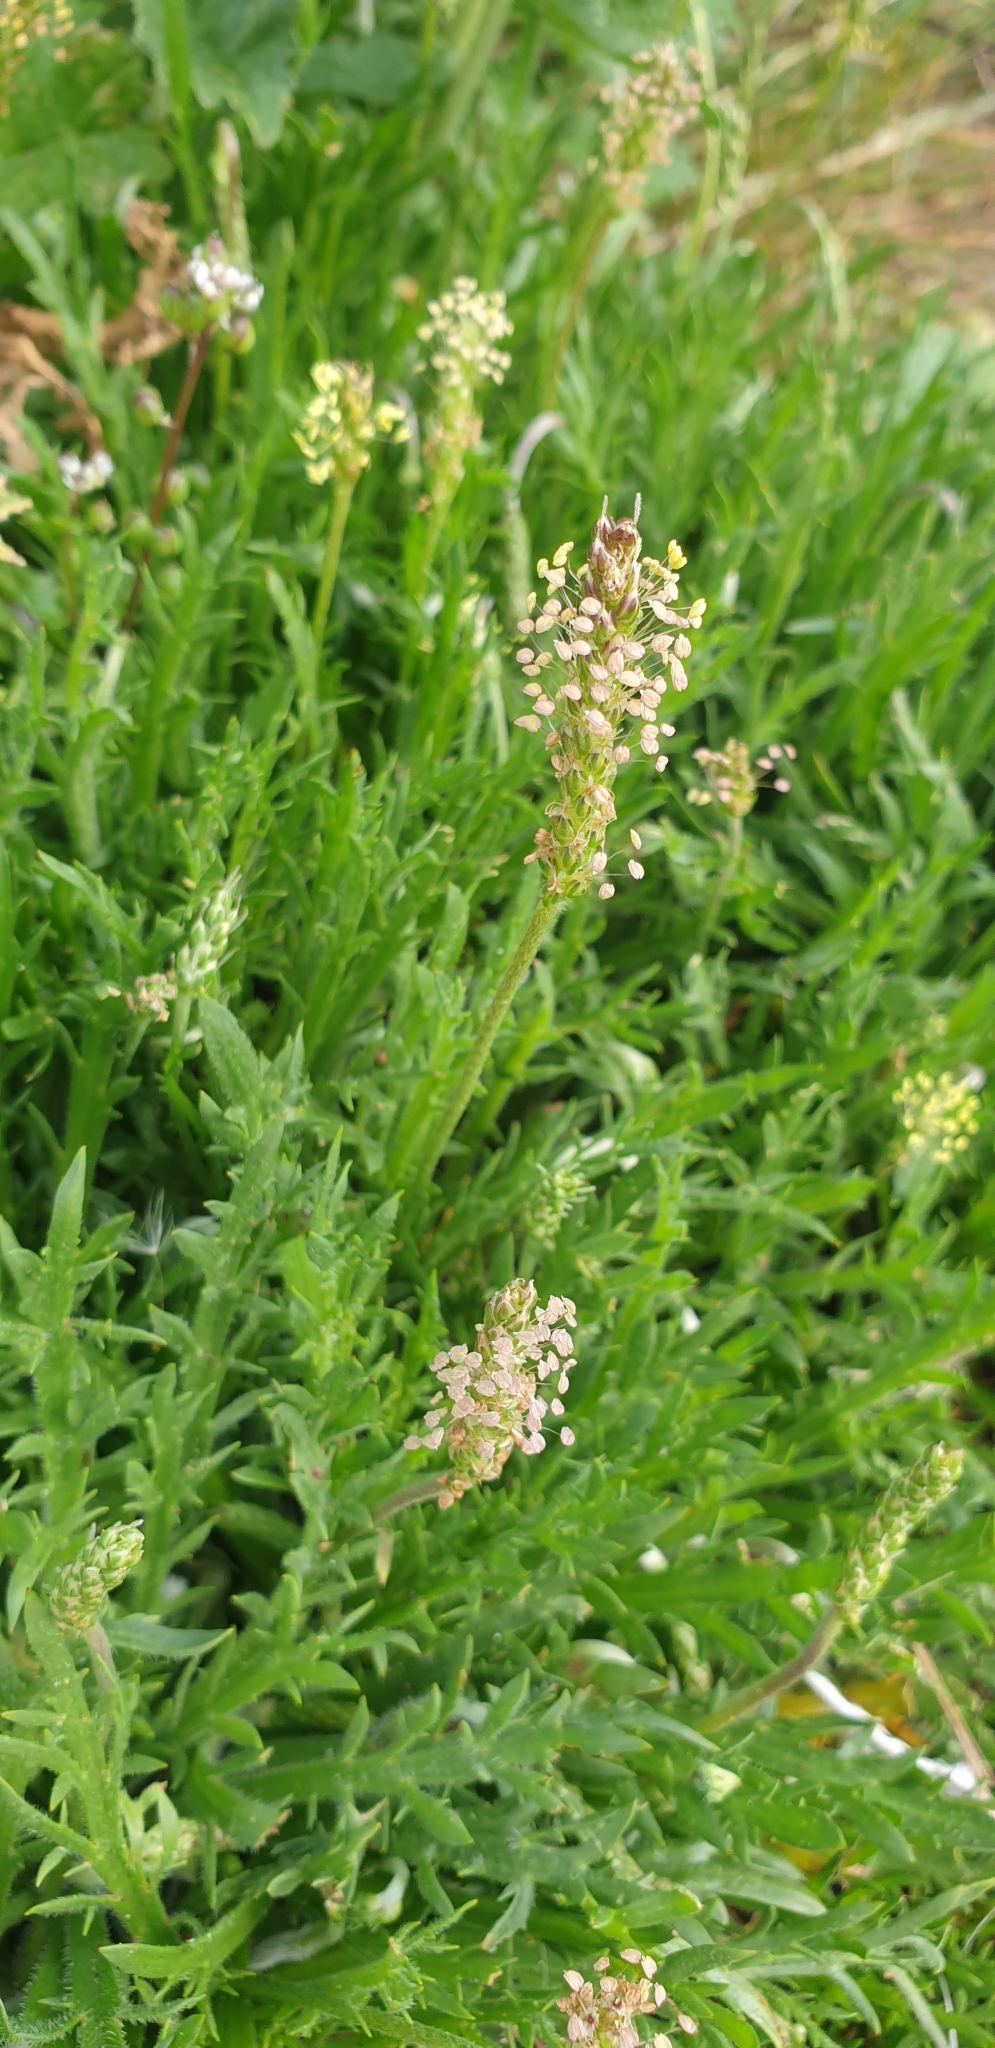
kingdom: Plantae
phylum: Tracheophyta
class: Magnoliopsida
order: Lamiales
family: Plantaginaceae
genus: Plantago
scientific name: Plantago coronopus
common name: Buck's-horn plantain
